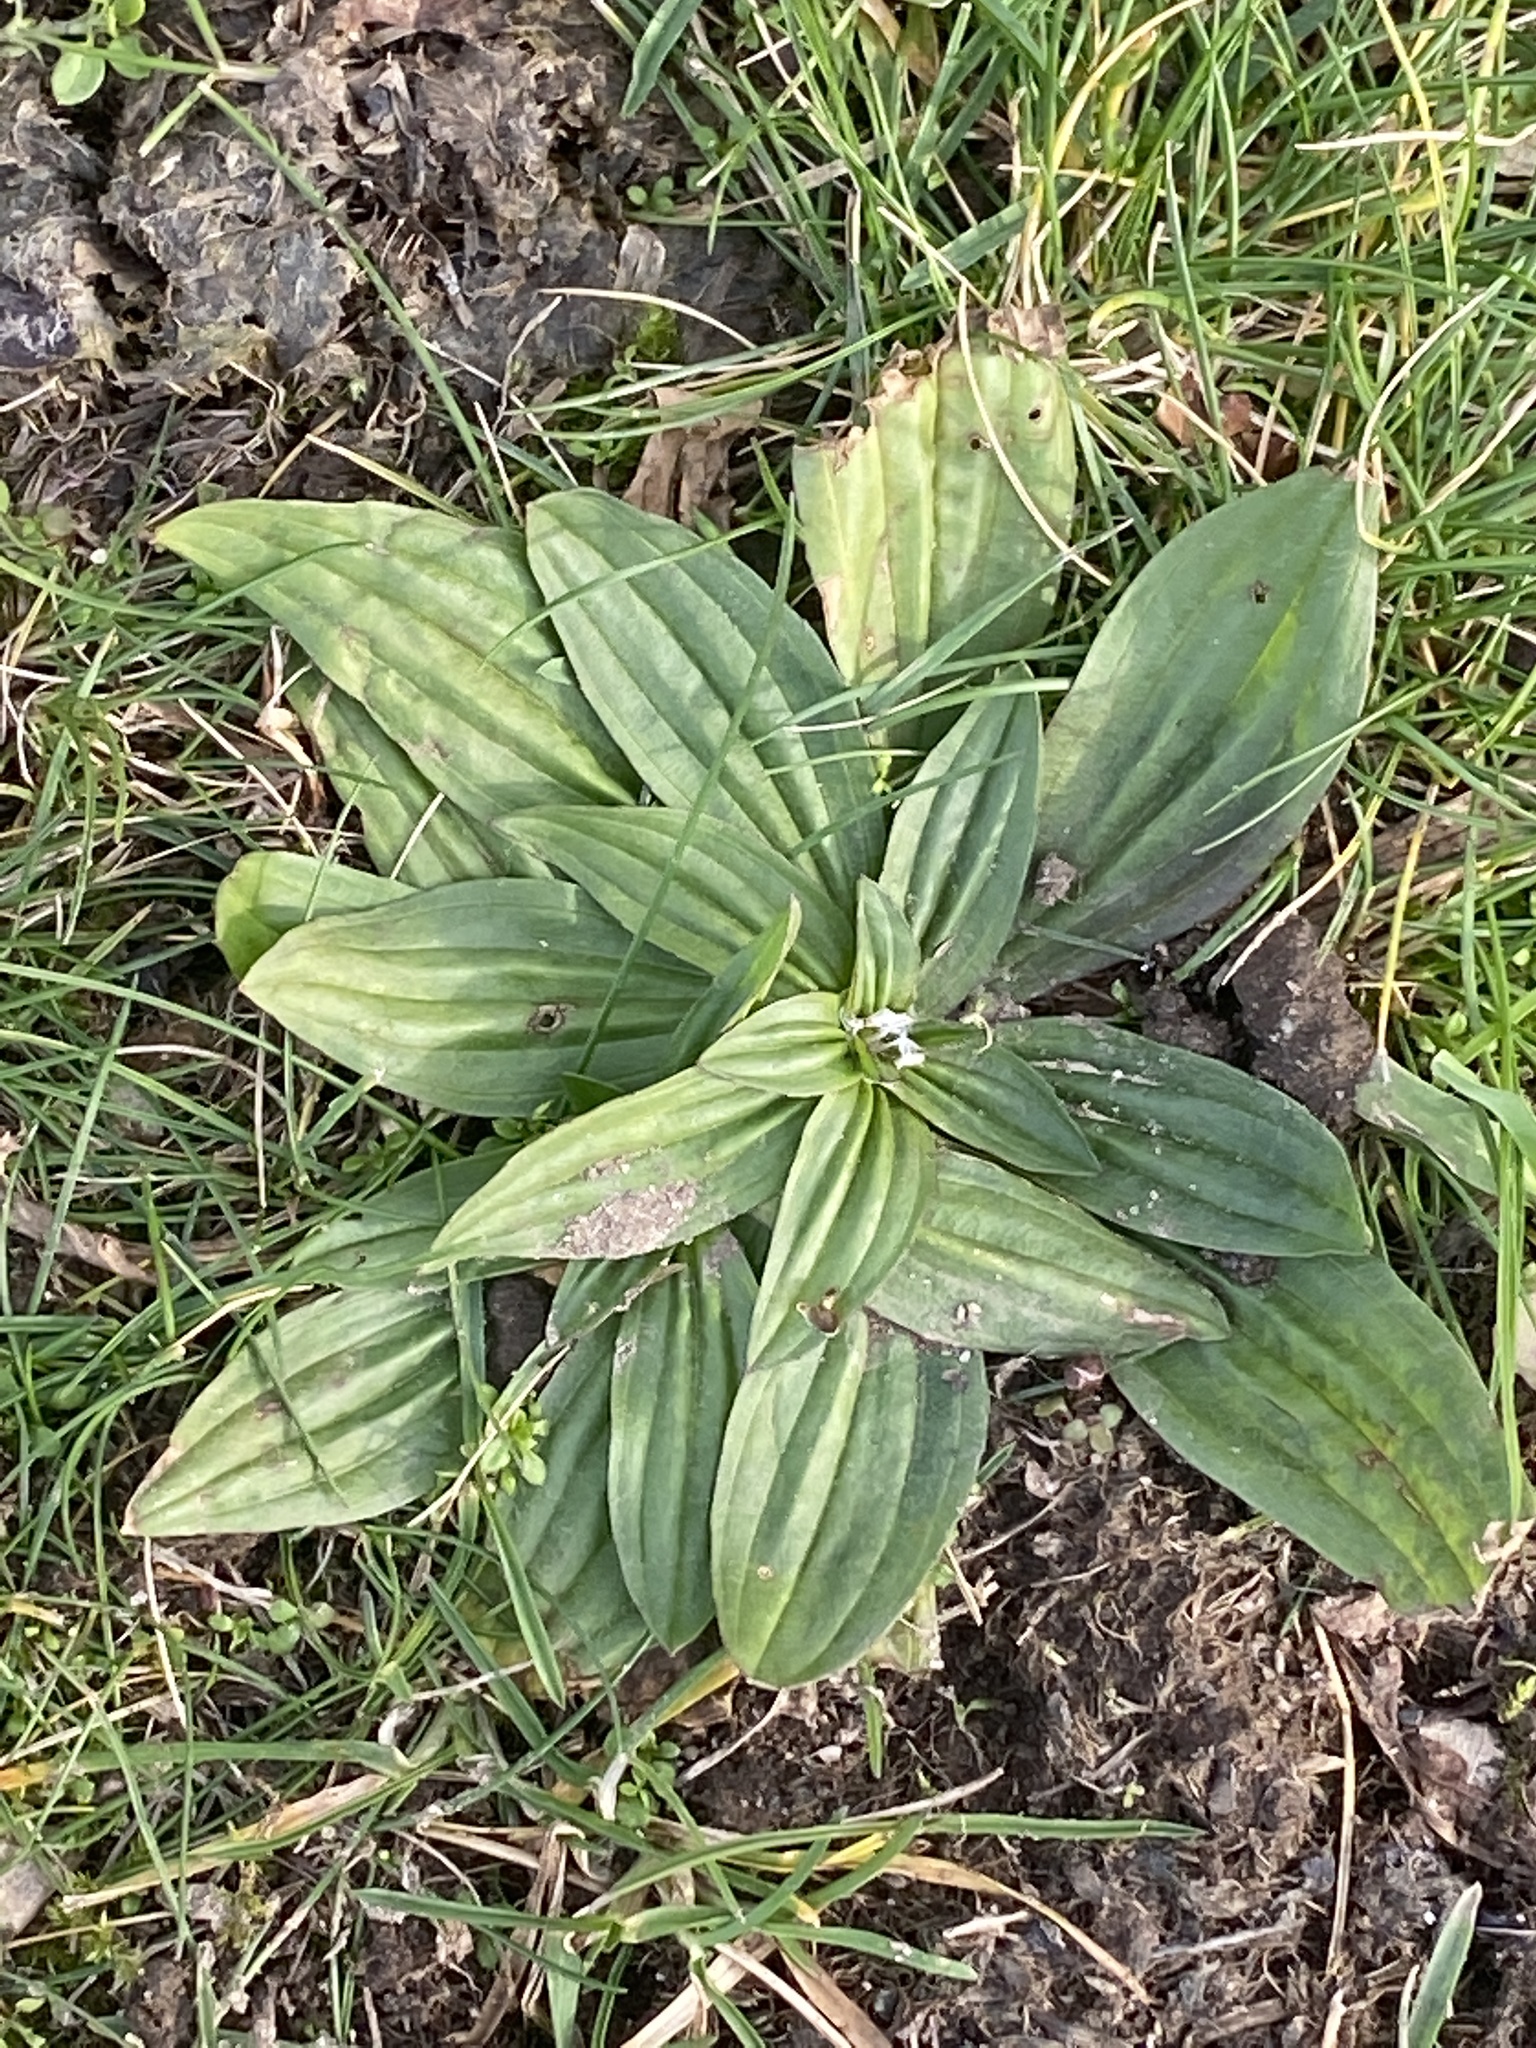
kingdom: Plantae
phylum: Tracheophyta
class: Magnoliopsida
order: Lamiales
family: Plantaginaceae
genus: Plantago
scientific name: Plantago lanceolata
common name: Ribwort plantain
